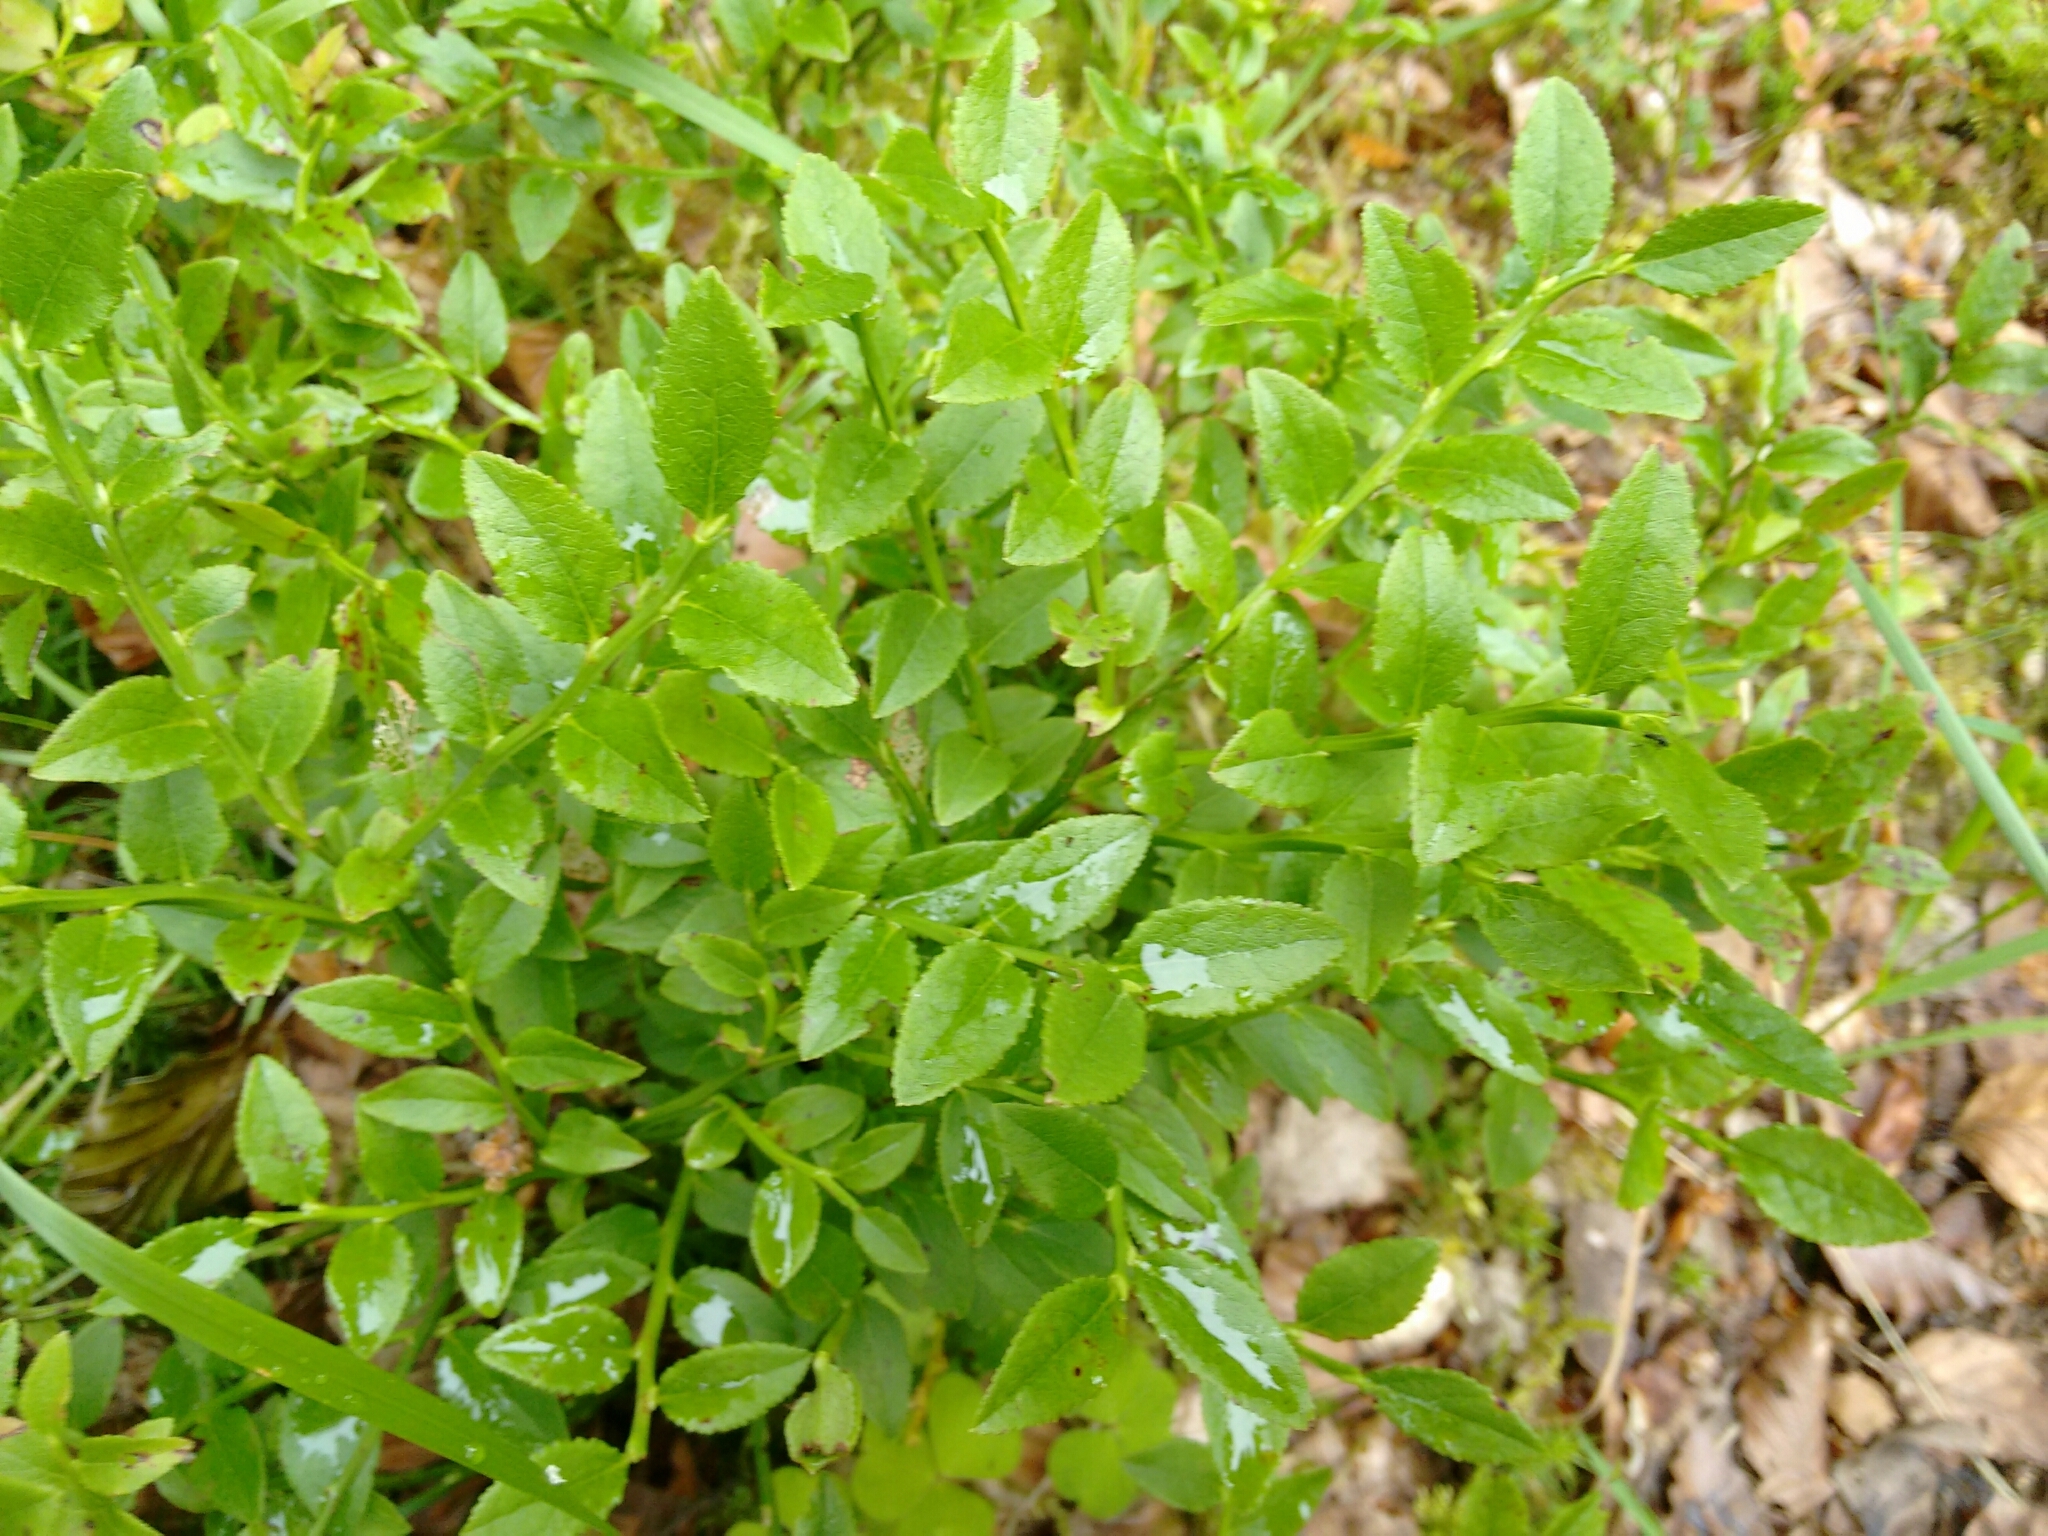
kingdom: Plantae
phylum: Tracheophyta
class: Magnoliopsida
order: Ericales
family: Ericaceae
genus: Vaccinium
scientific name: Vaccinium myrtillus
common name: Bilberry
